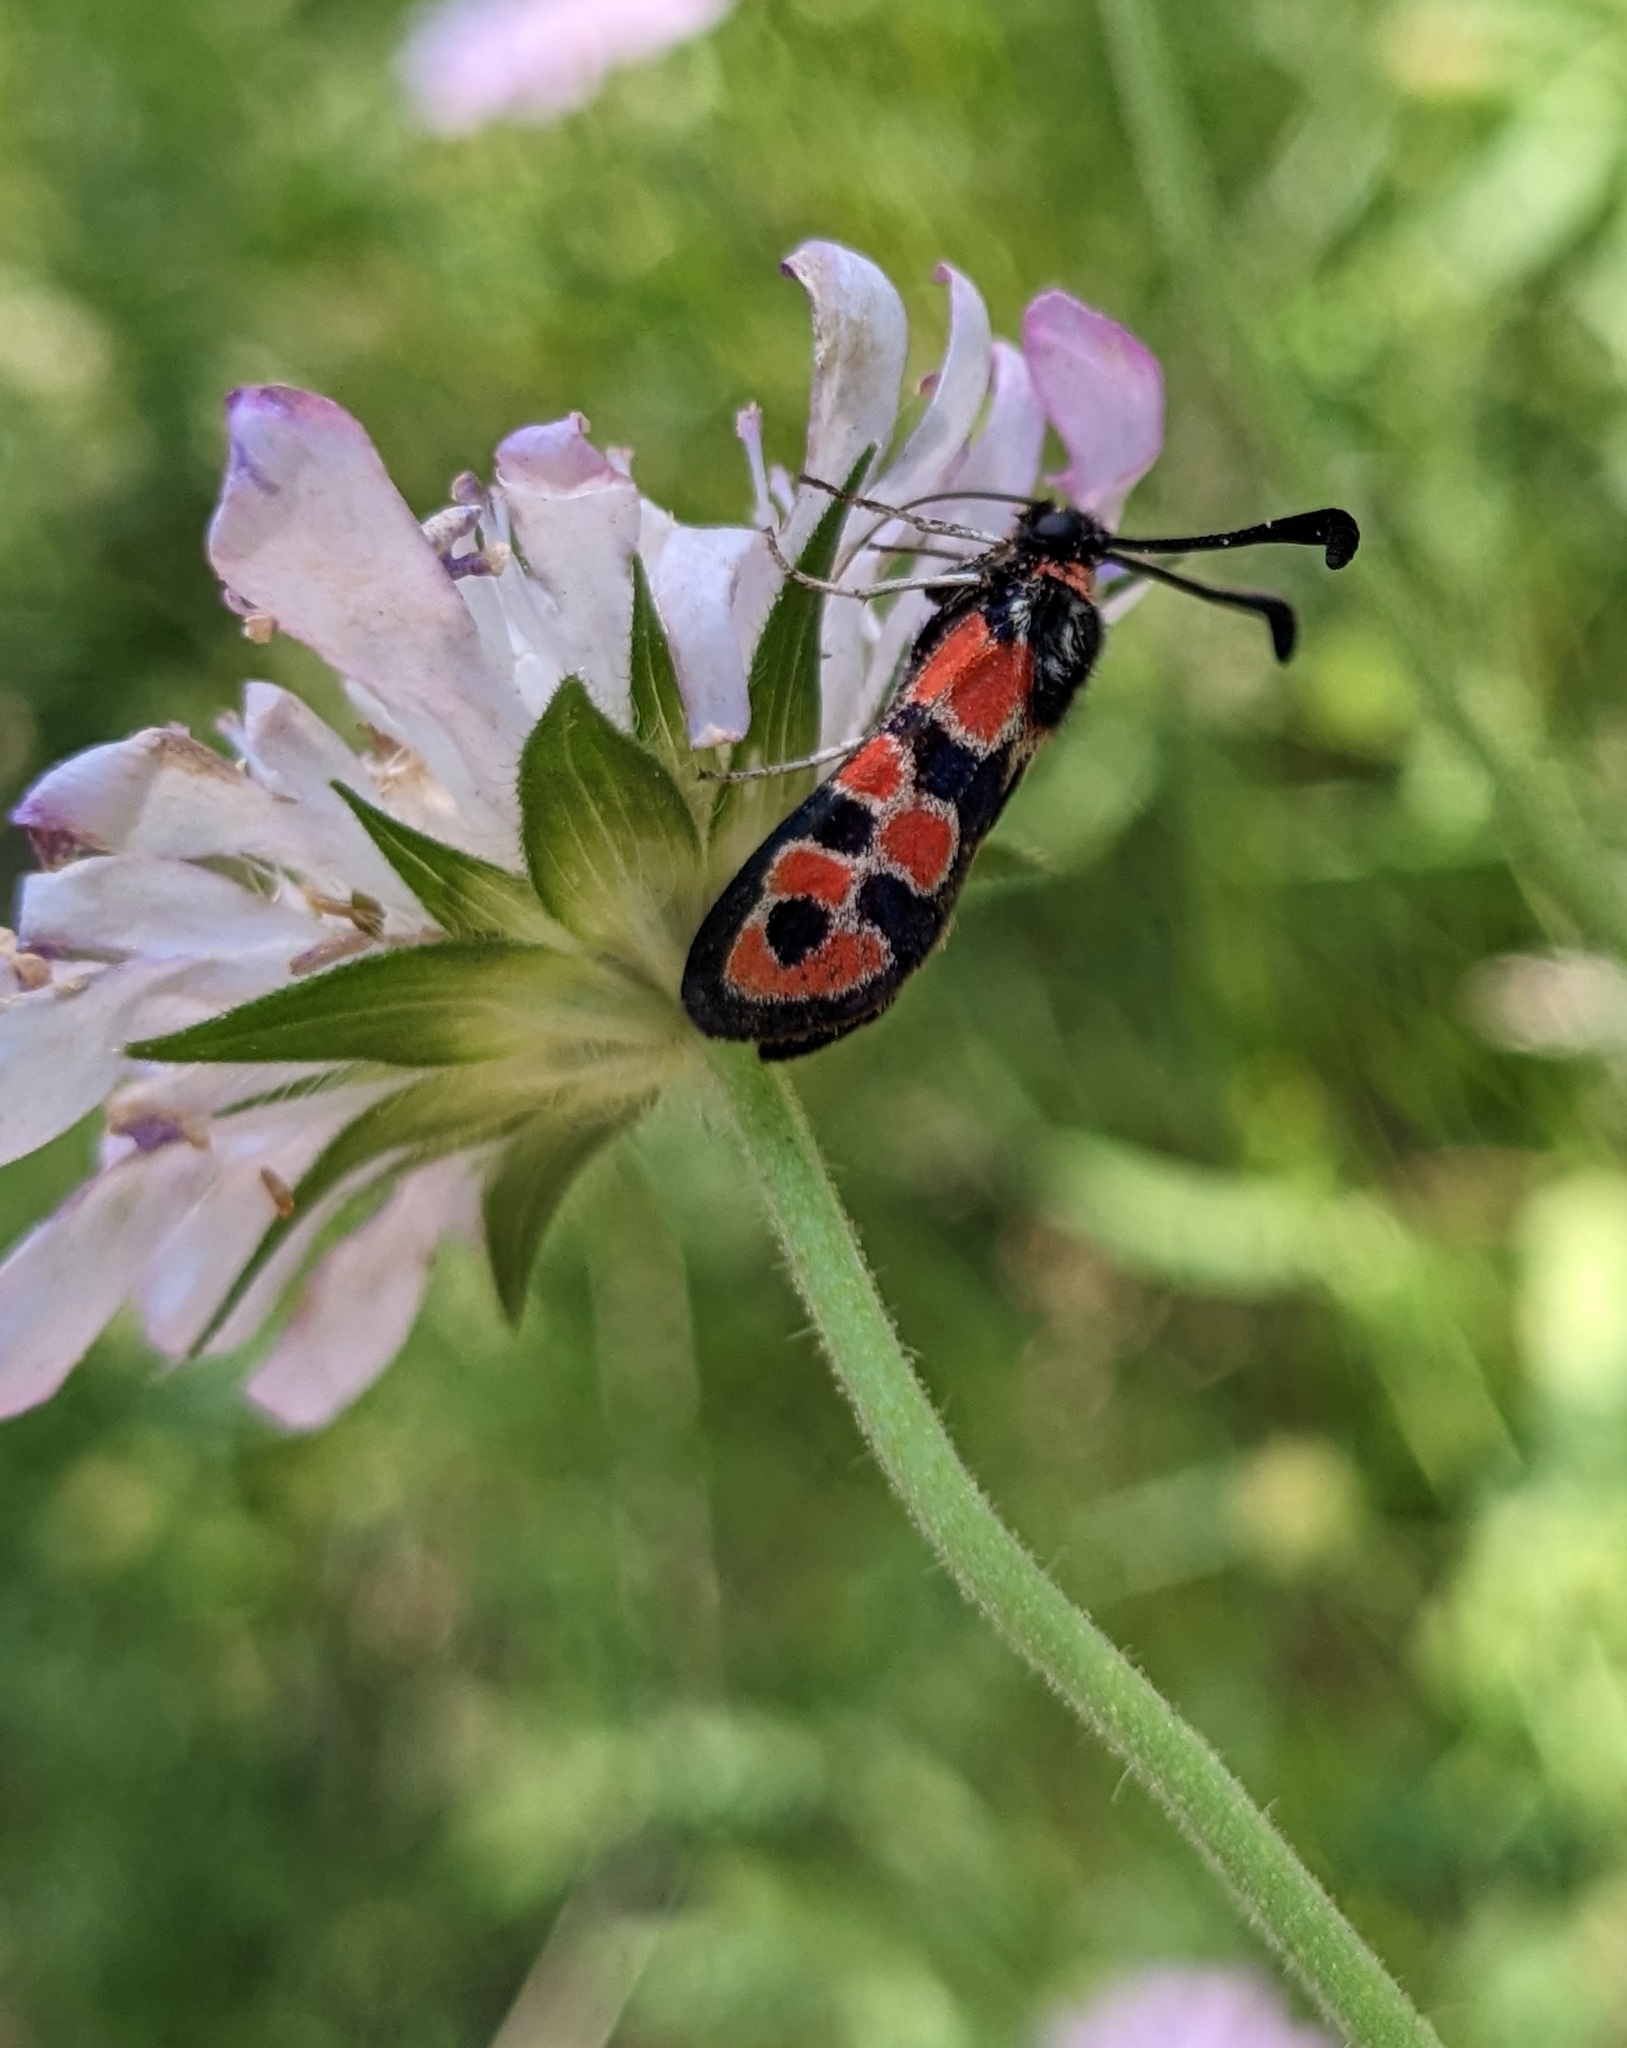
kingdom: Animalia
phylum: Arthropoda
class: Insecta
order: Lepidoptera
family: Zygaenidae
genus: Zygaena
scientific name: Zygaena fausta
